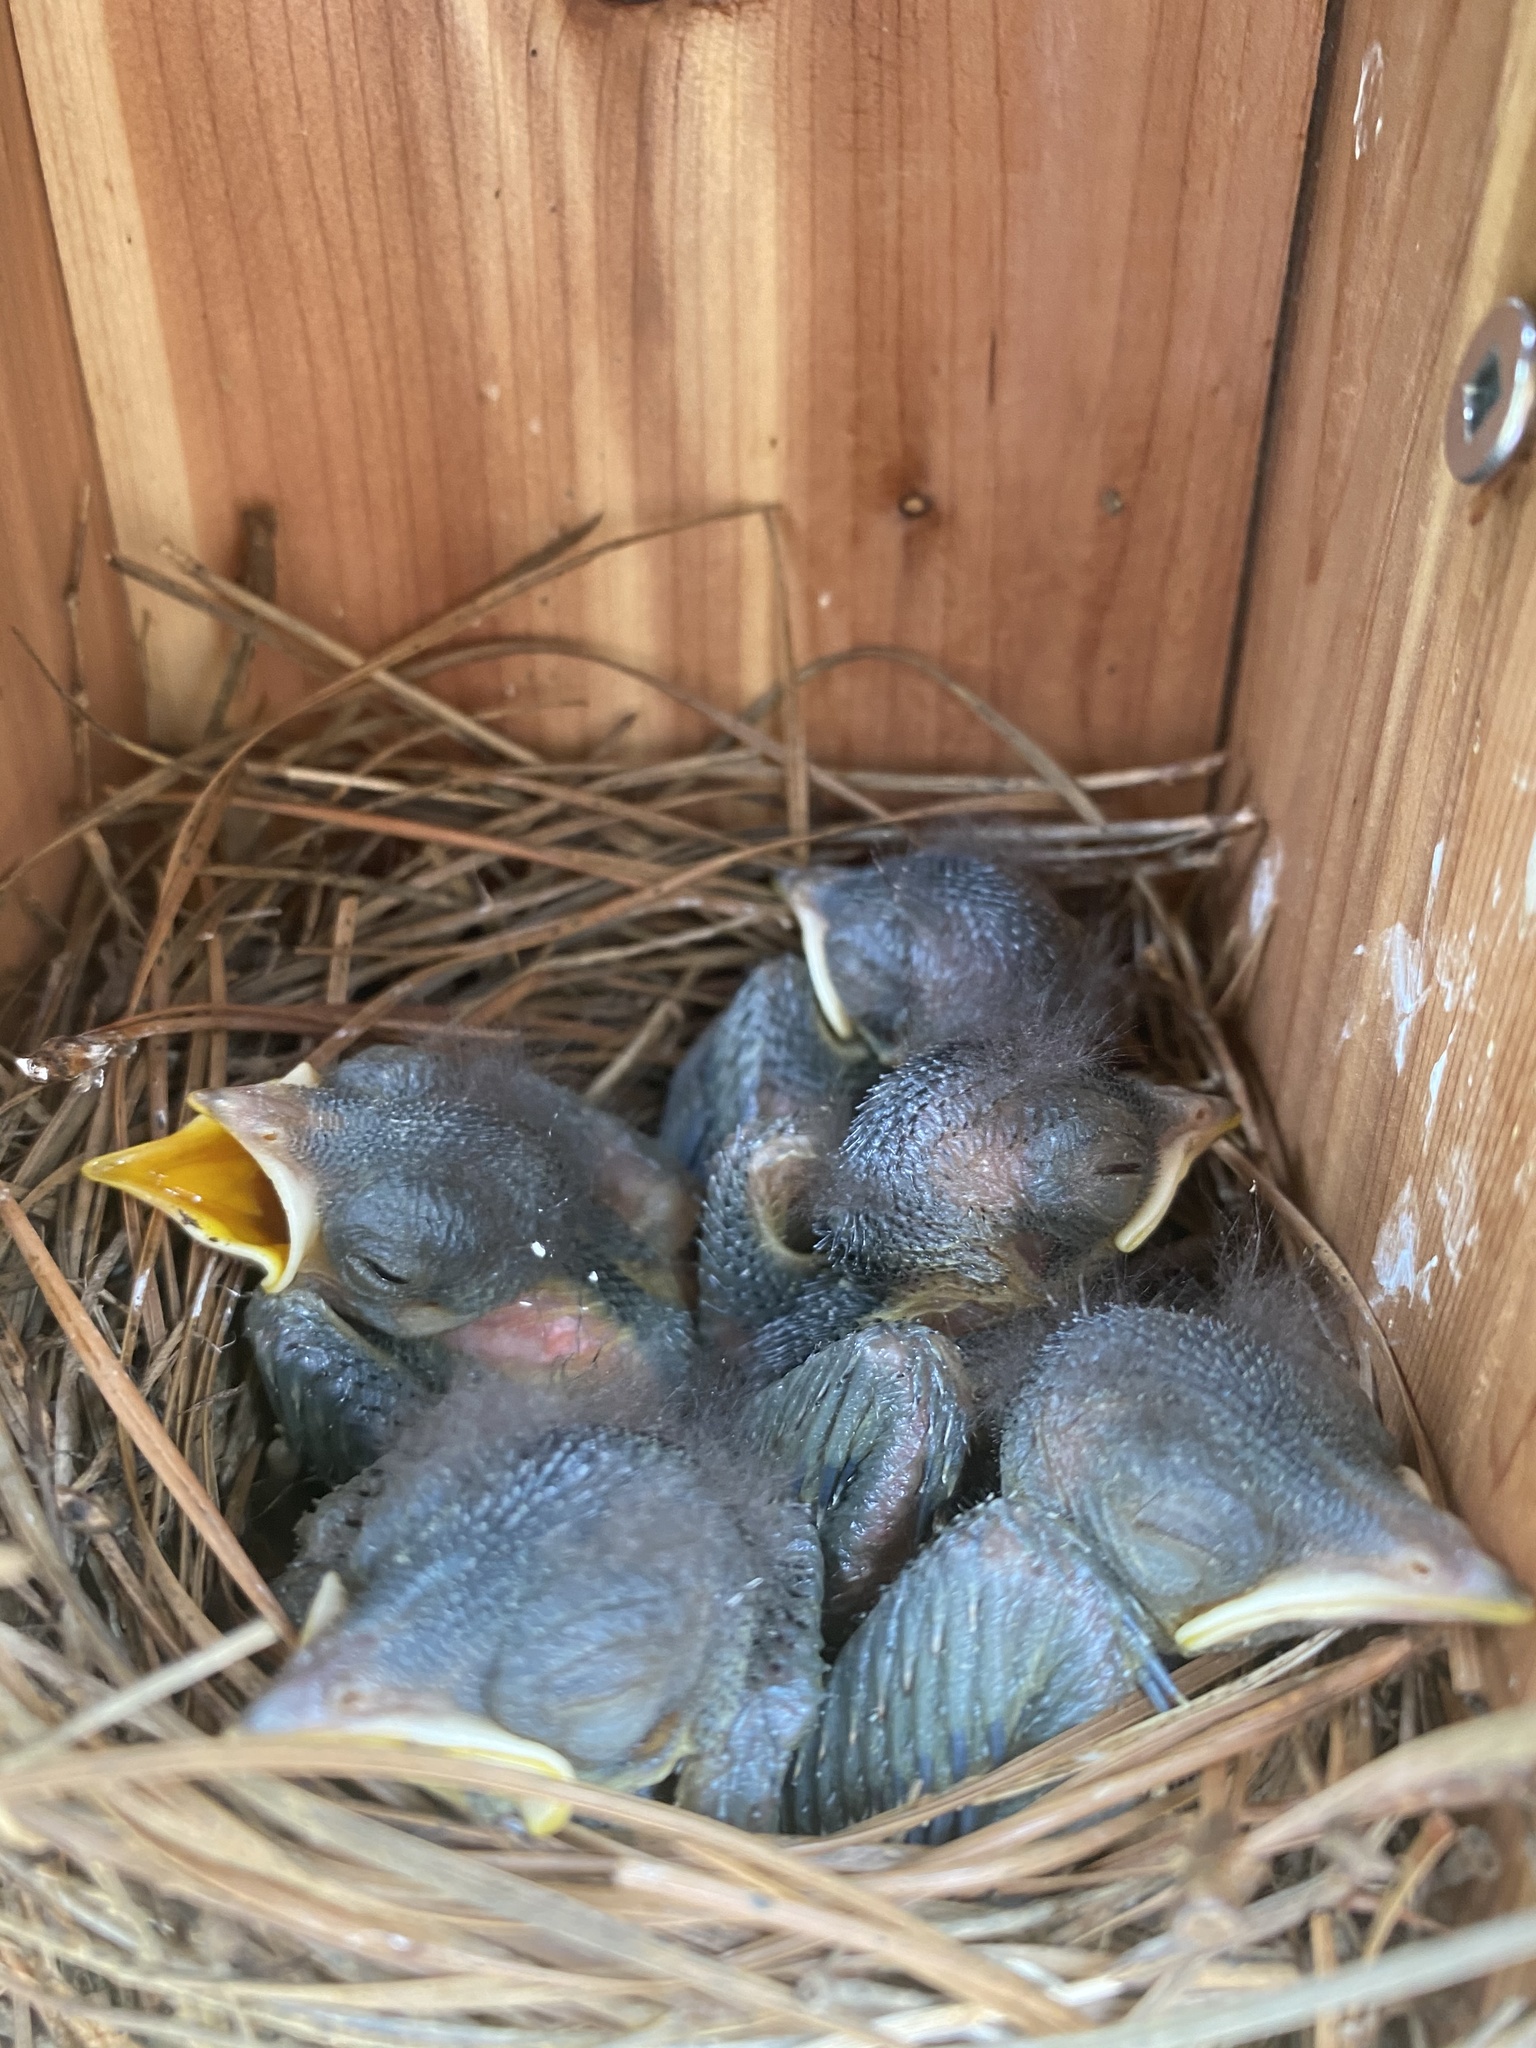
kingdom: Animalia
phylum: Chordata
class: Aves
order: Passeriformes
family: Turdidae
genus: Sialia
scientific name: Sialia sialis
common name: Eastern bluebird
